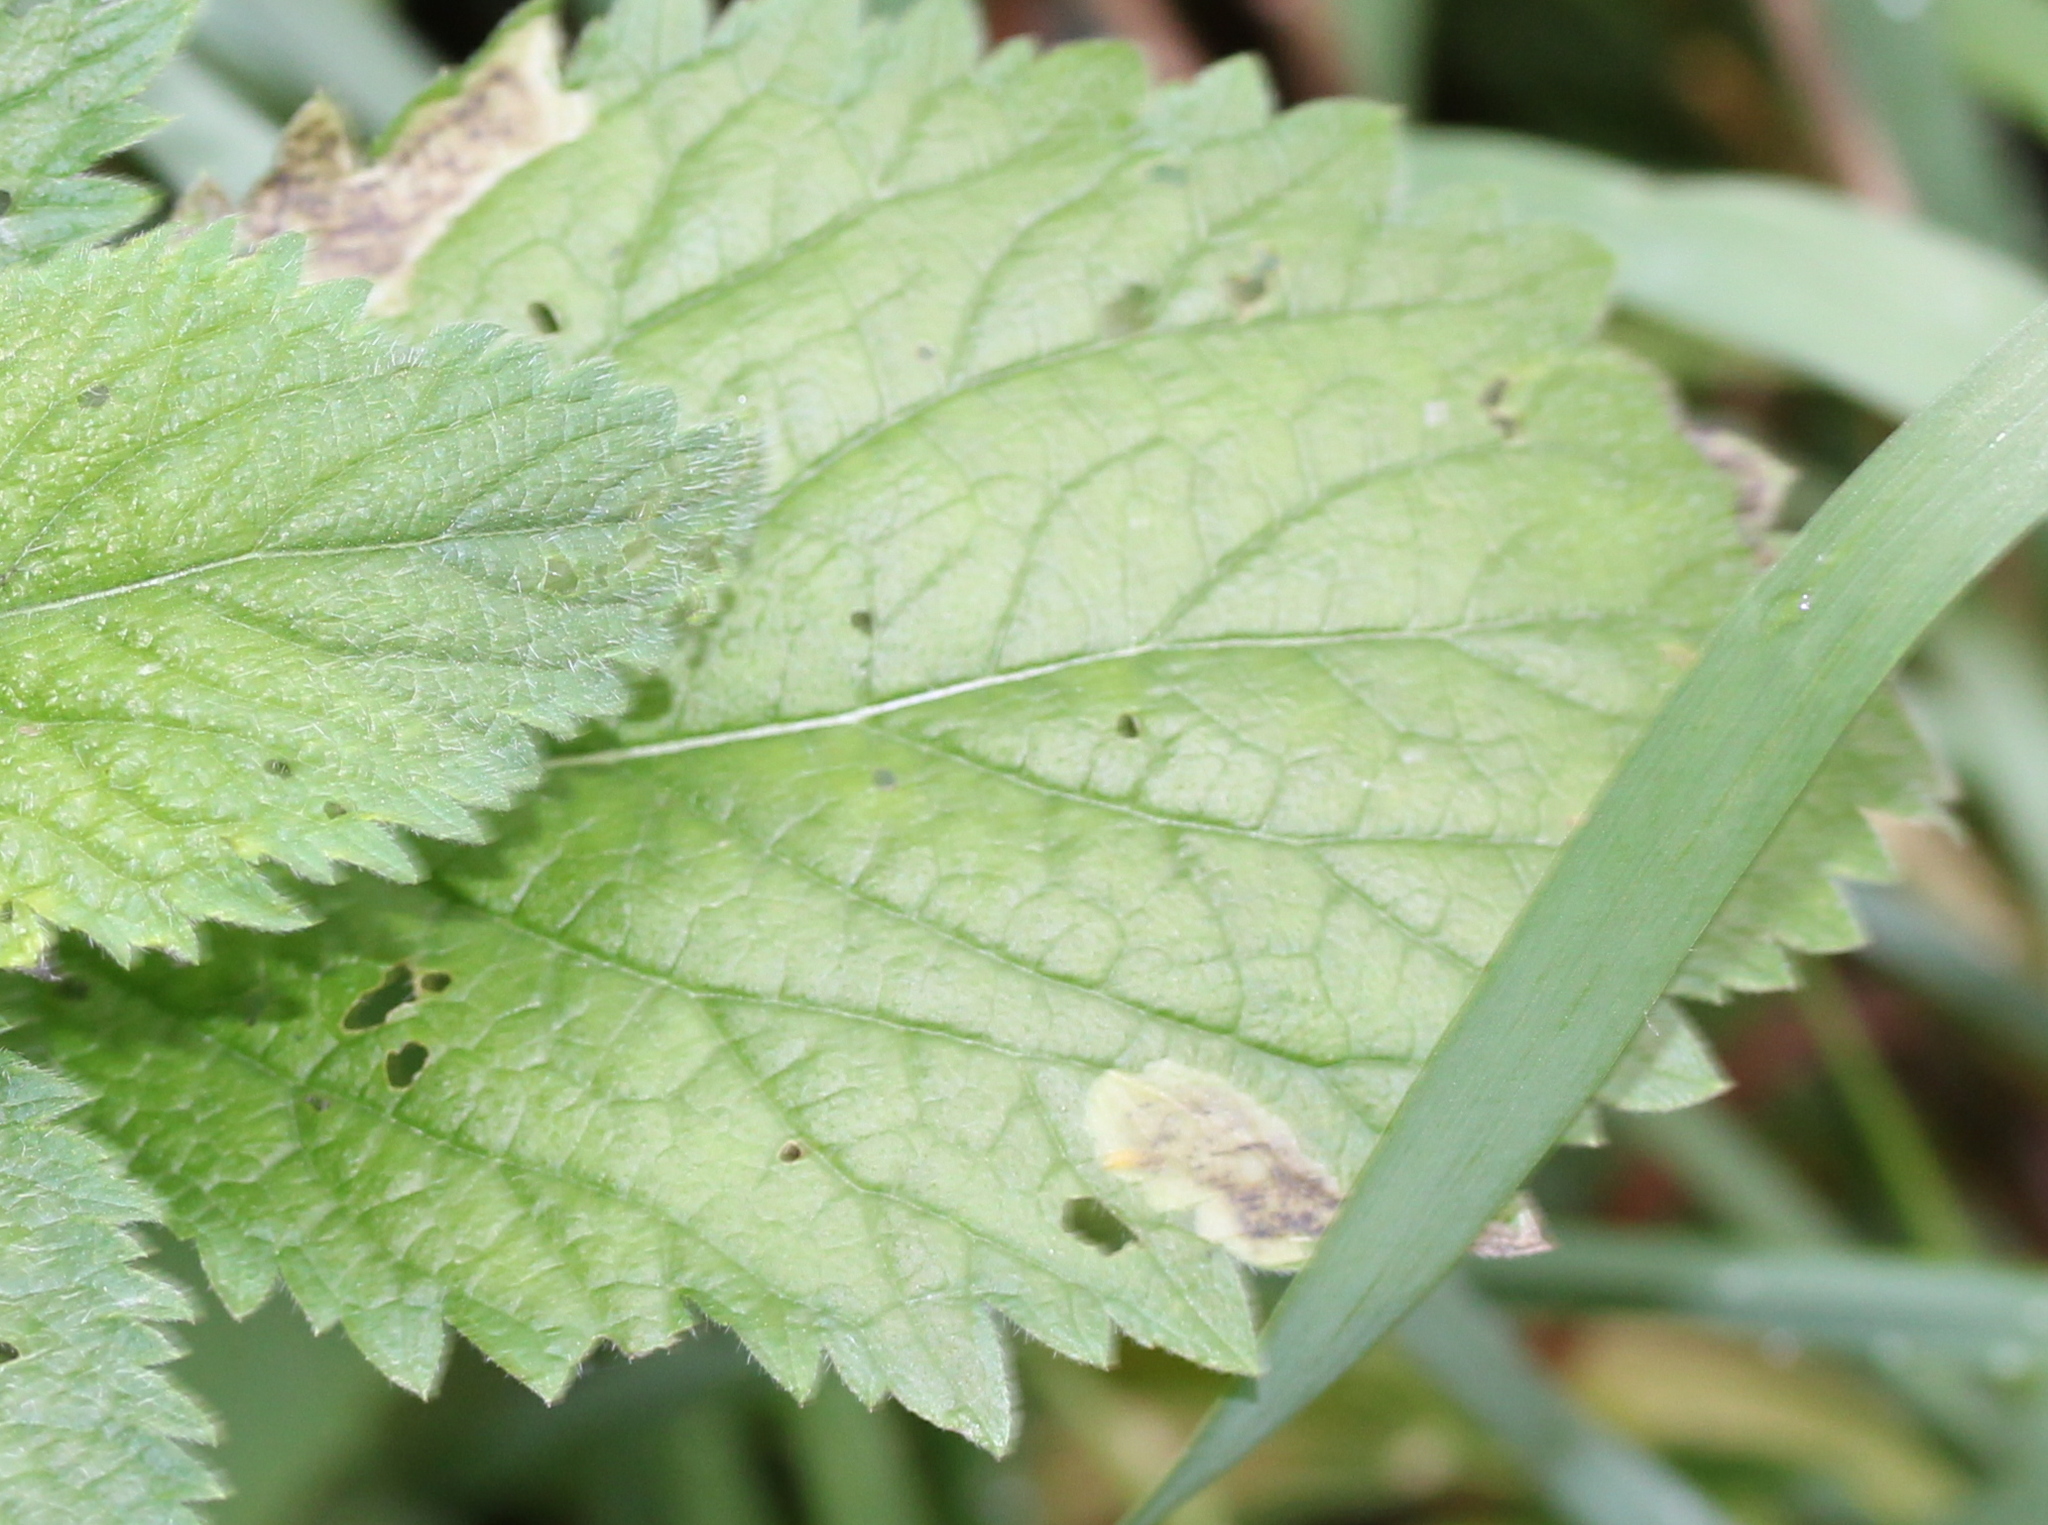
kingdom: Animalia
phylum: Arthropoda
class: Insecta
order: Diptera
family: Agromyzidae
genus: Calycomyza
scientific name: Calycomyza verbenae
